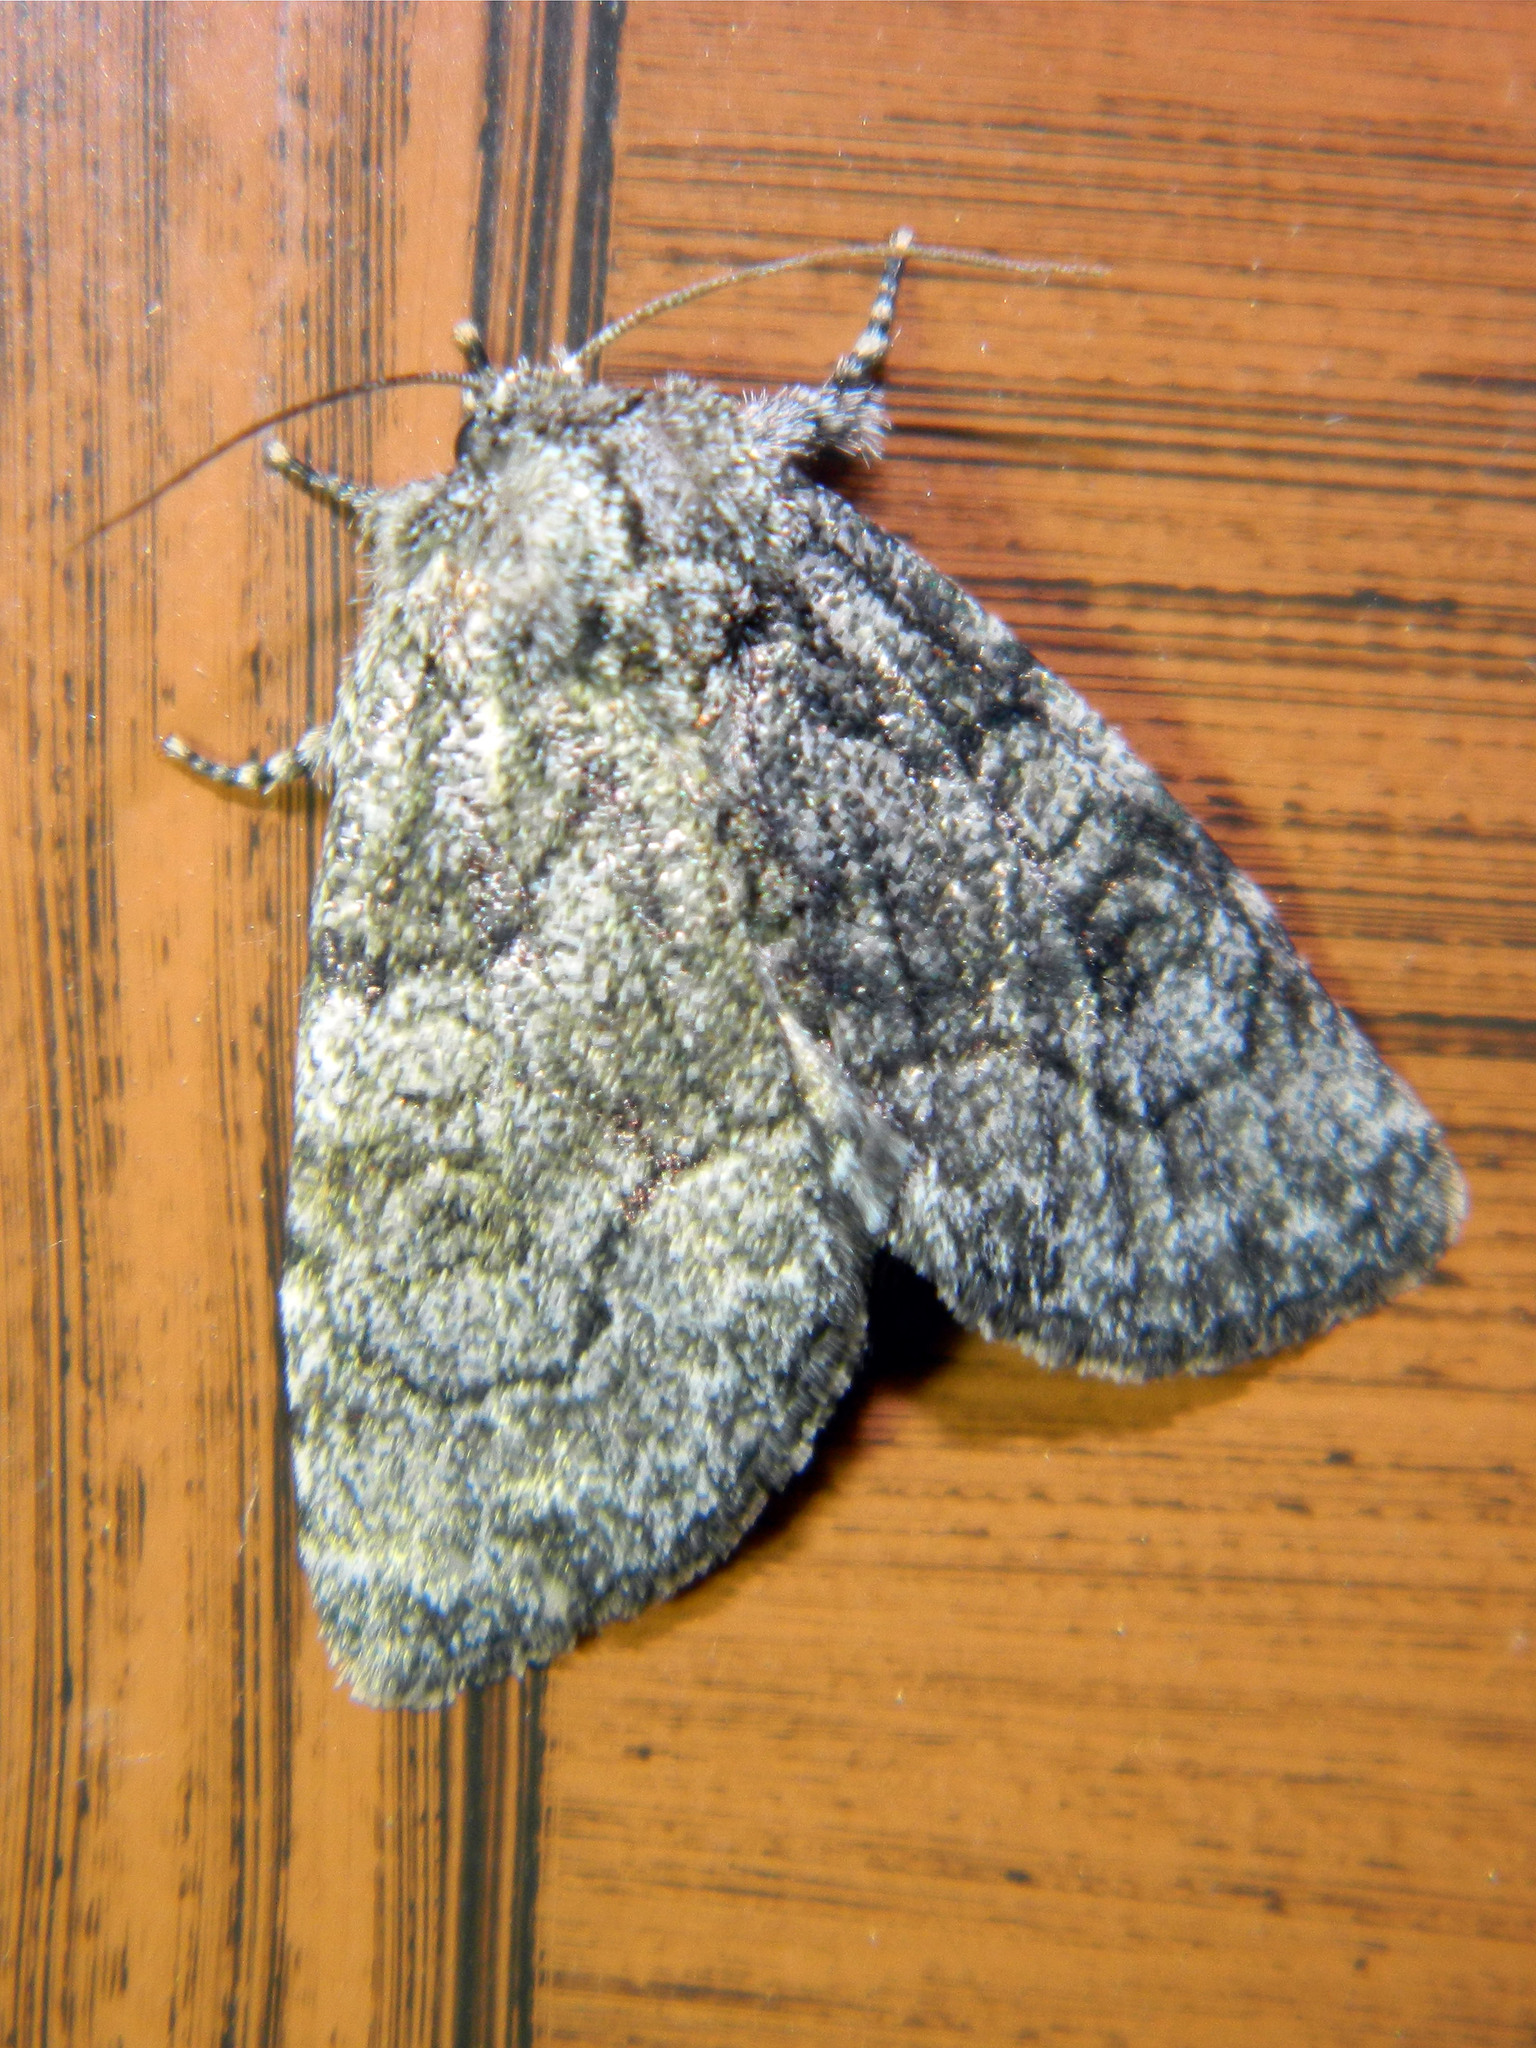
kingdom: Animalia
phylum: Arthropoda
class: Insecta
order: Lepidoptera
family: Noctuidae
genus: Raphia
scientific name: Raphia frater
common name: Brother
